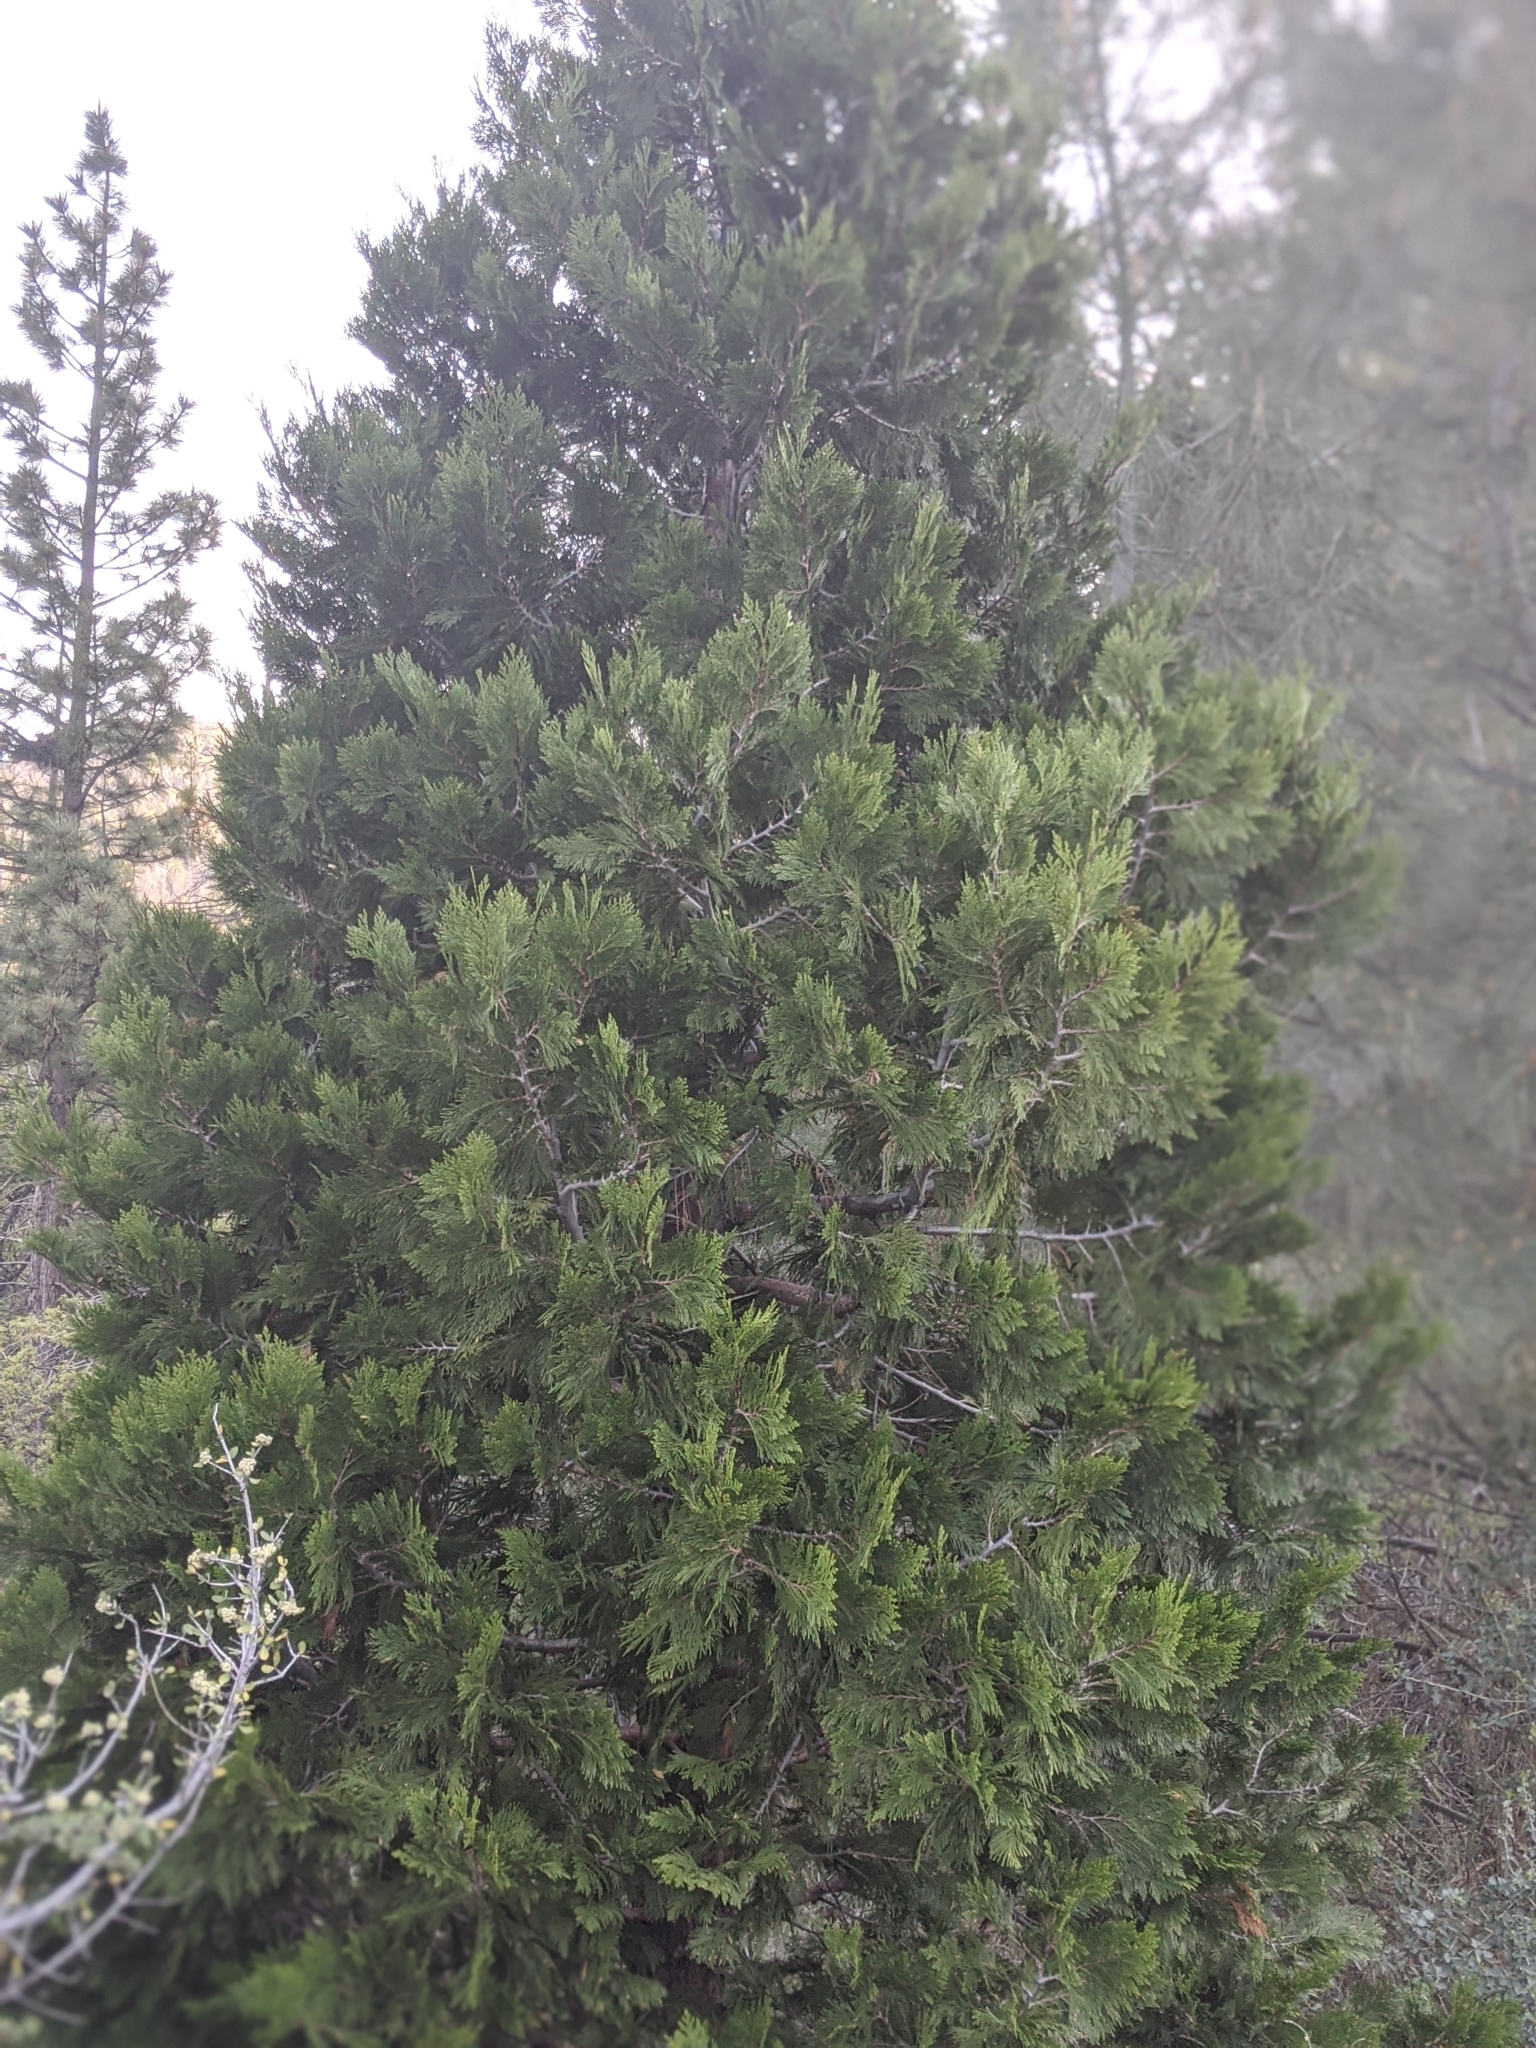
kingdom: Plantae
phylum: Tracheophyta
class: Pinopsida
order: Pinales
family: Cupressaceae
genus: Calocedrus
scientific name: Calocedrus decurrens
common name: Californian incense-cedar
